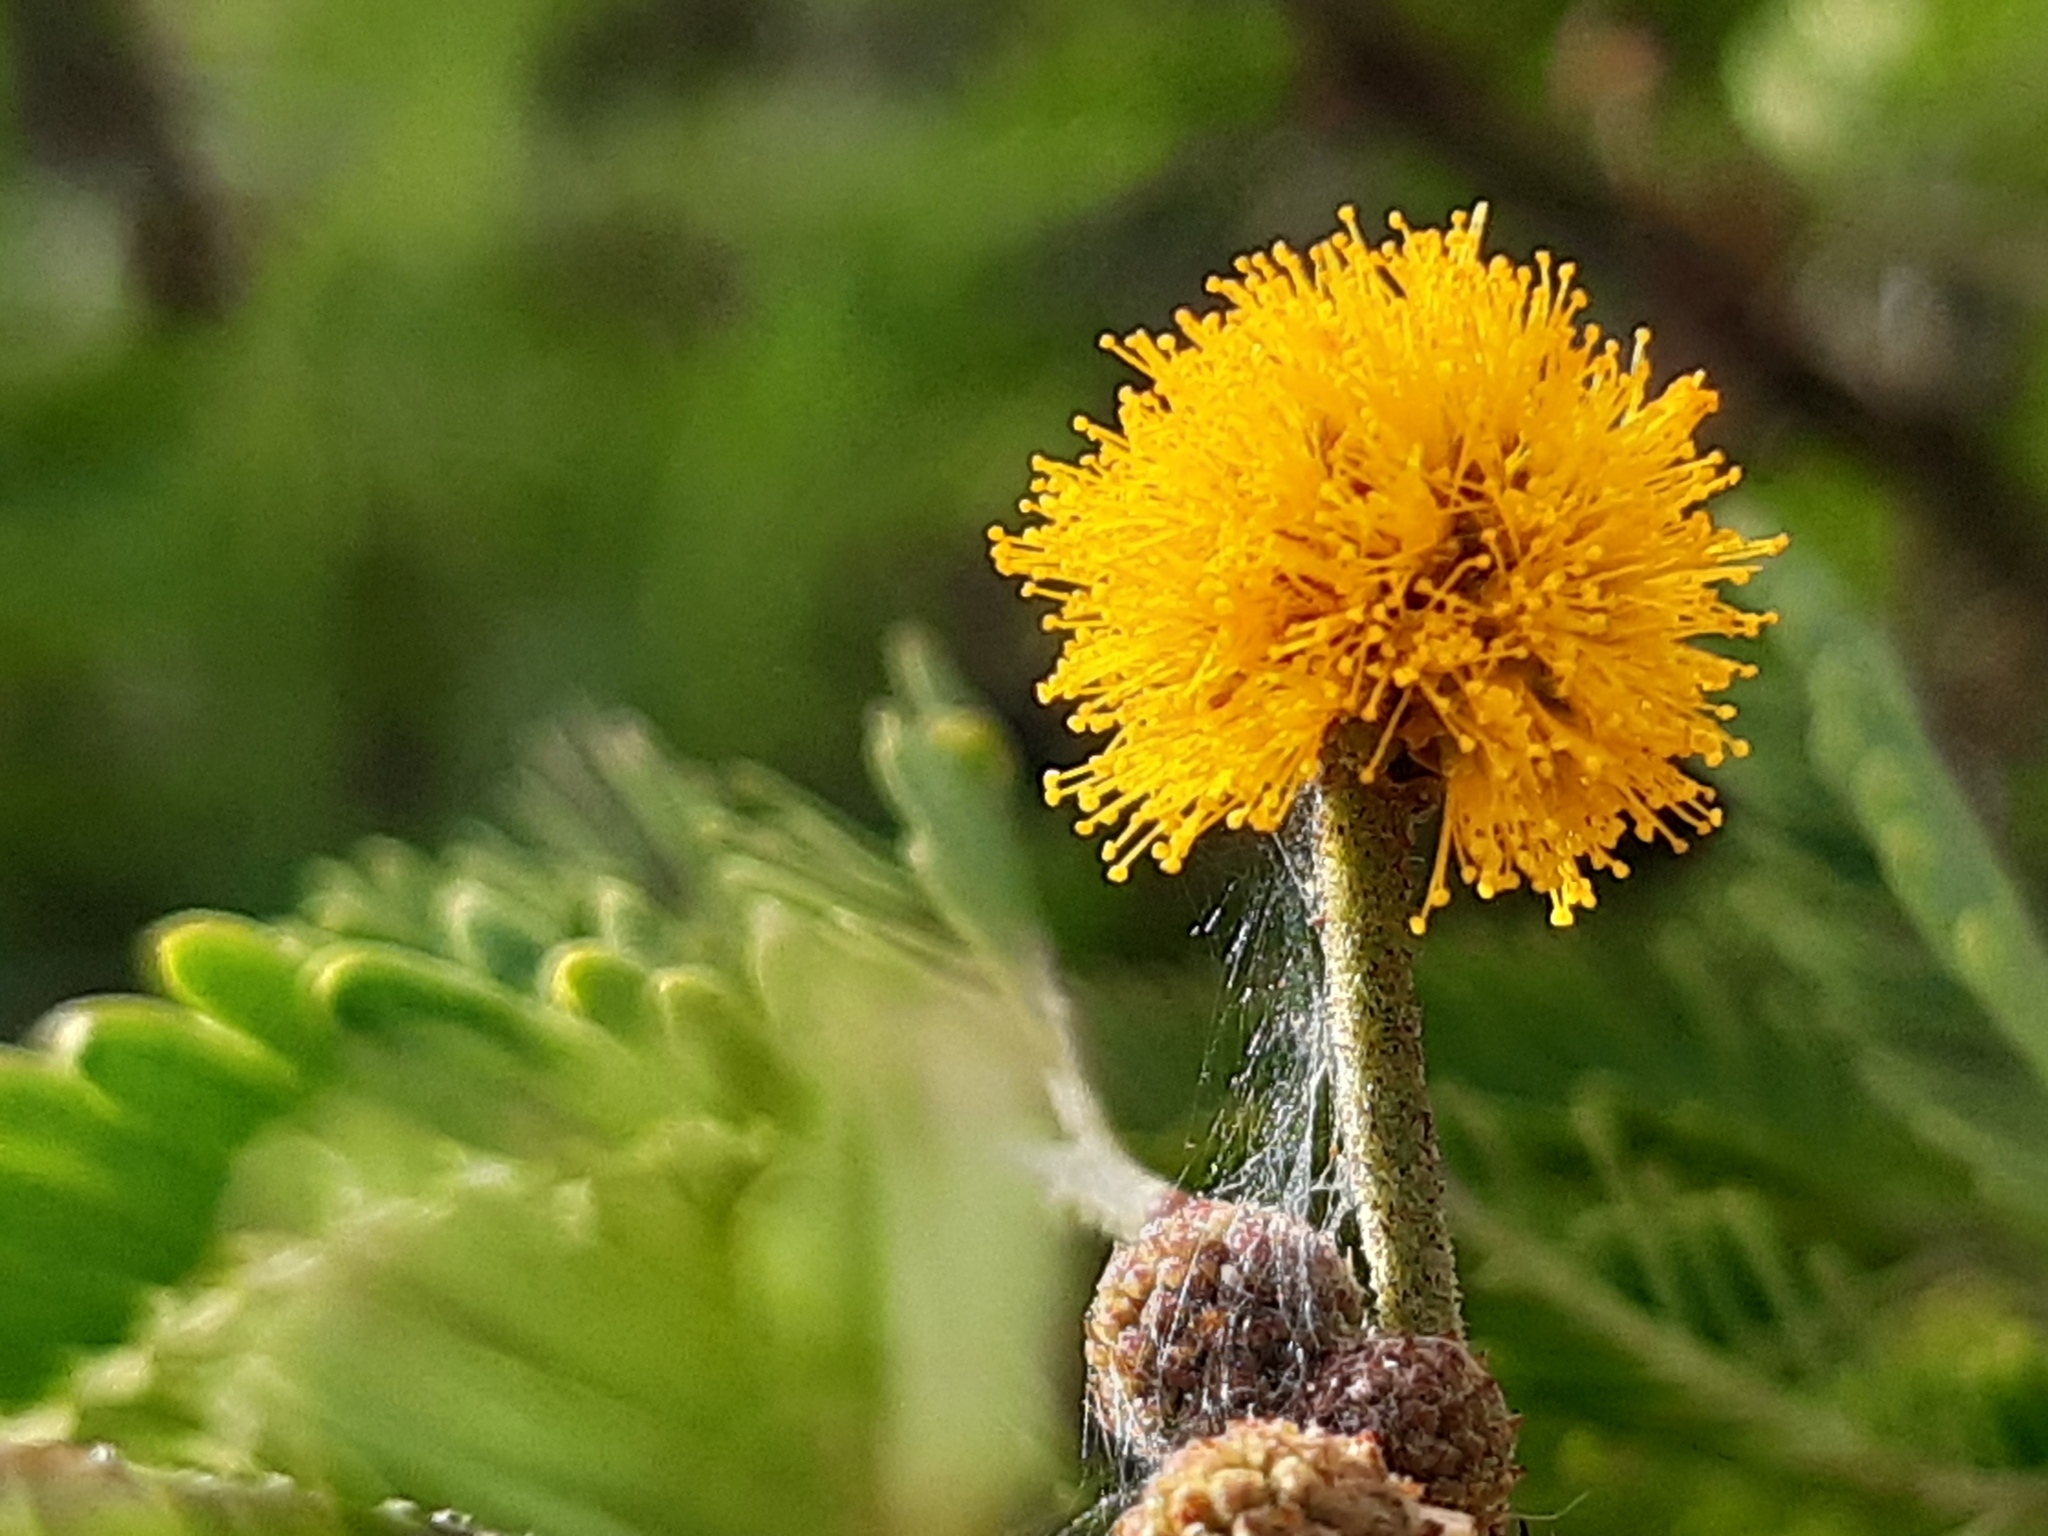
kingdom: Plantae
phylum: Tracheophyta
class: Magnoliopsida
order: Fabales
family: Fabaceae
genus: Vachellia
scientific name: Vachellia farnesiana
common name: Sweet acacia
